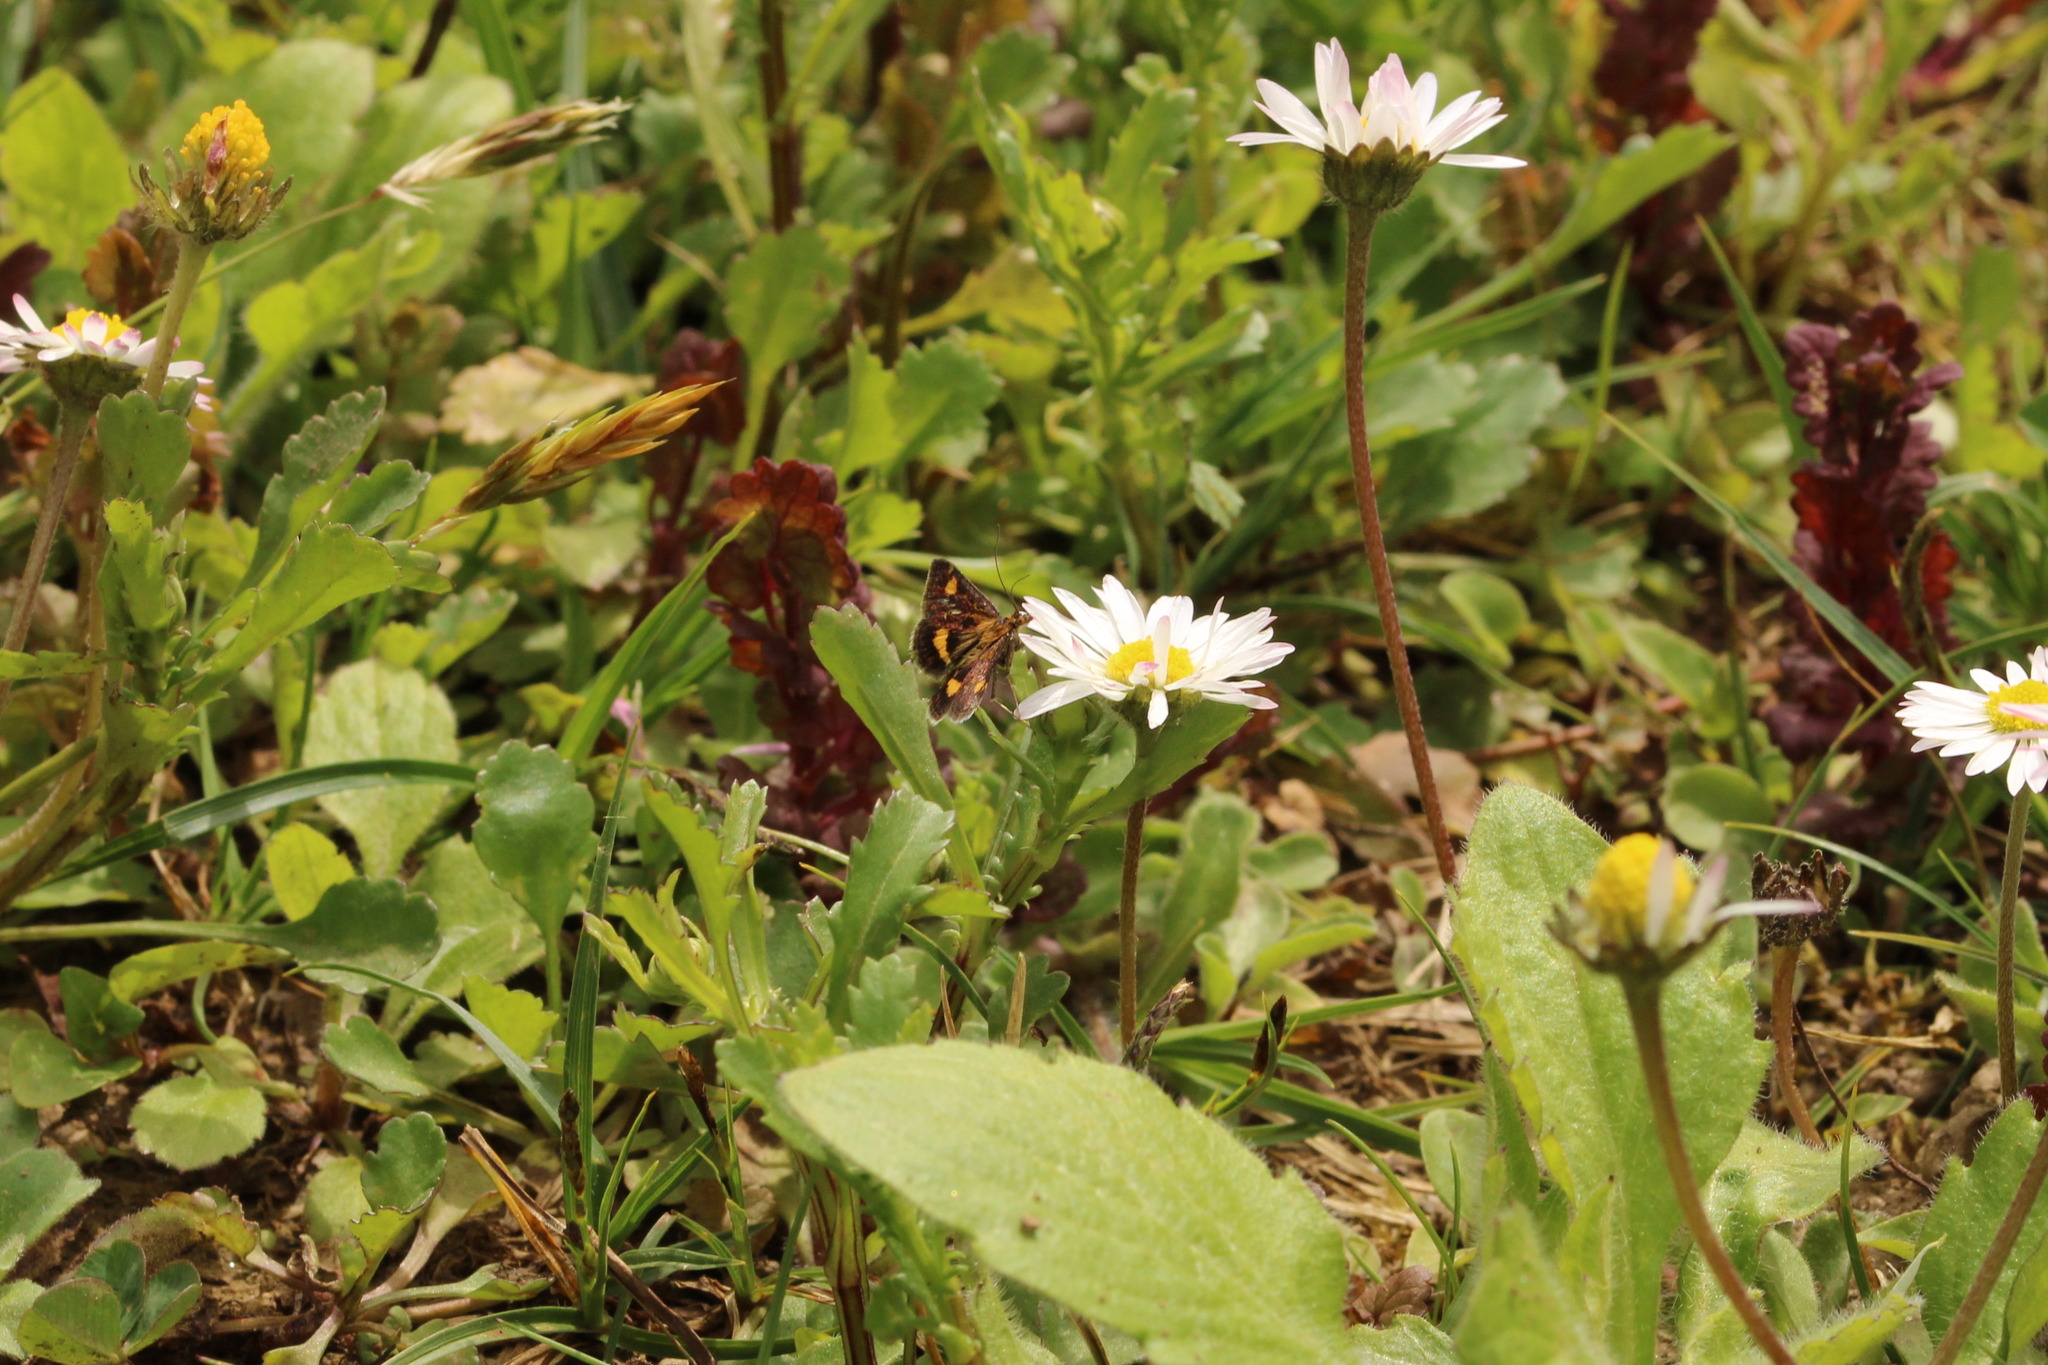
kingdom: Animalia
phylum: Arthropoda
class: Insecta
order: Lepidoptera
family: Crambidae
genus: Pyrausta
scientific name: Pyrausta aurata
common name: Small purple & gold
